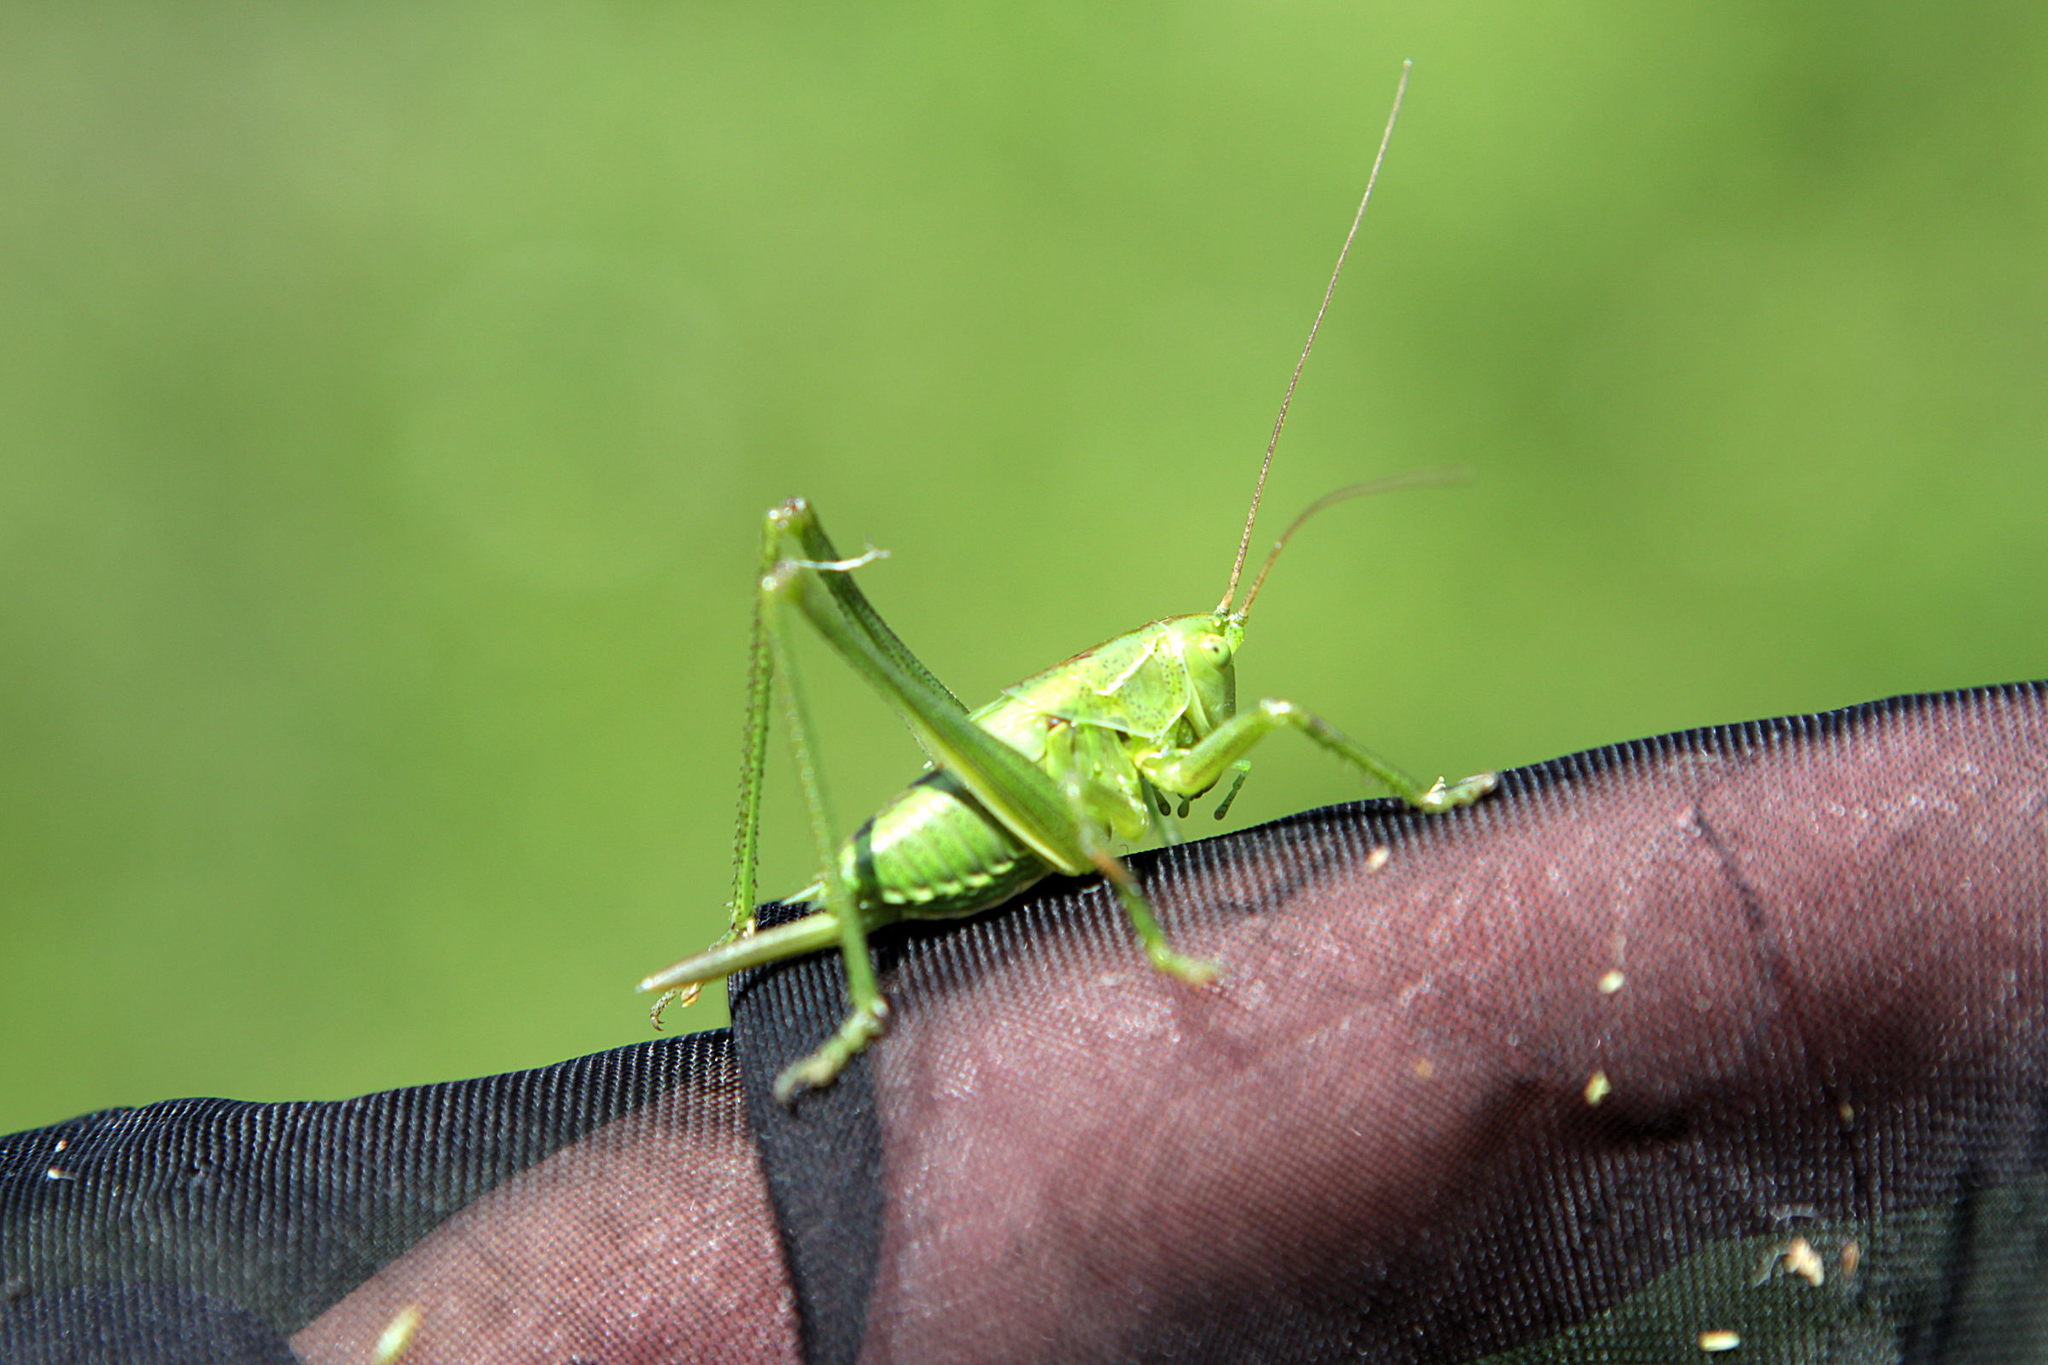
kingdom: Animalia
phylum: Arthropoda
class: Insecta
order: Orthoptera
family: Tettigoniidae
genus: Tettigonia
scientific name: Tettigonia viridissima
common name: Great green bush-cricket
